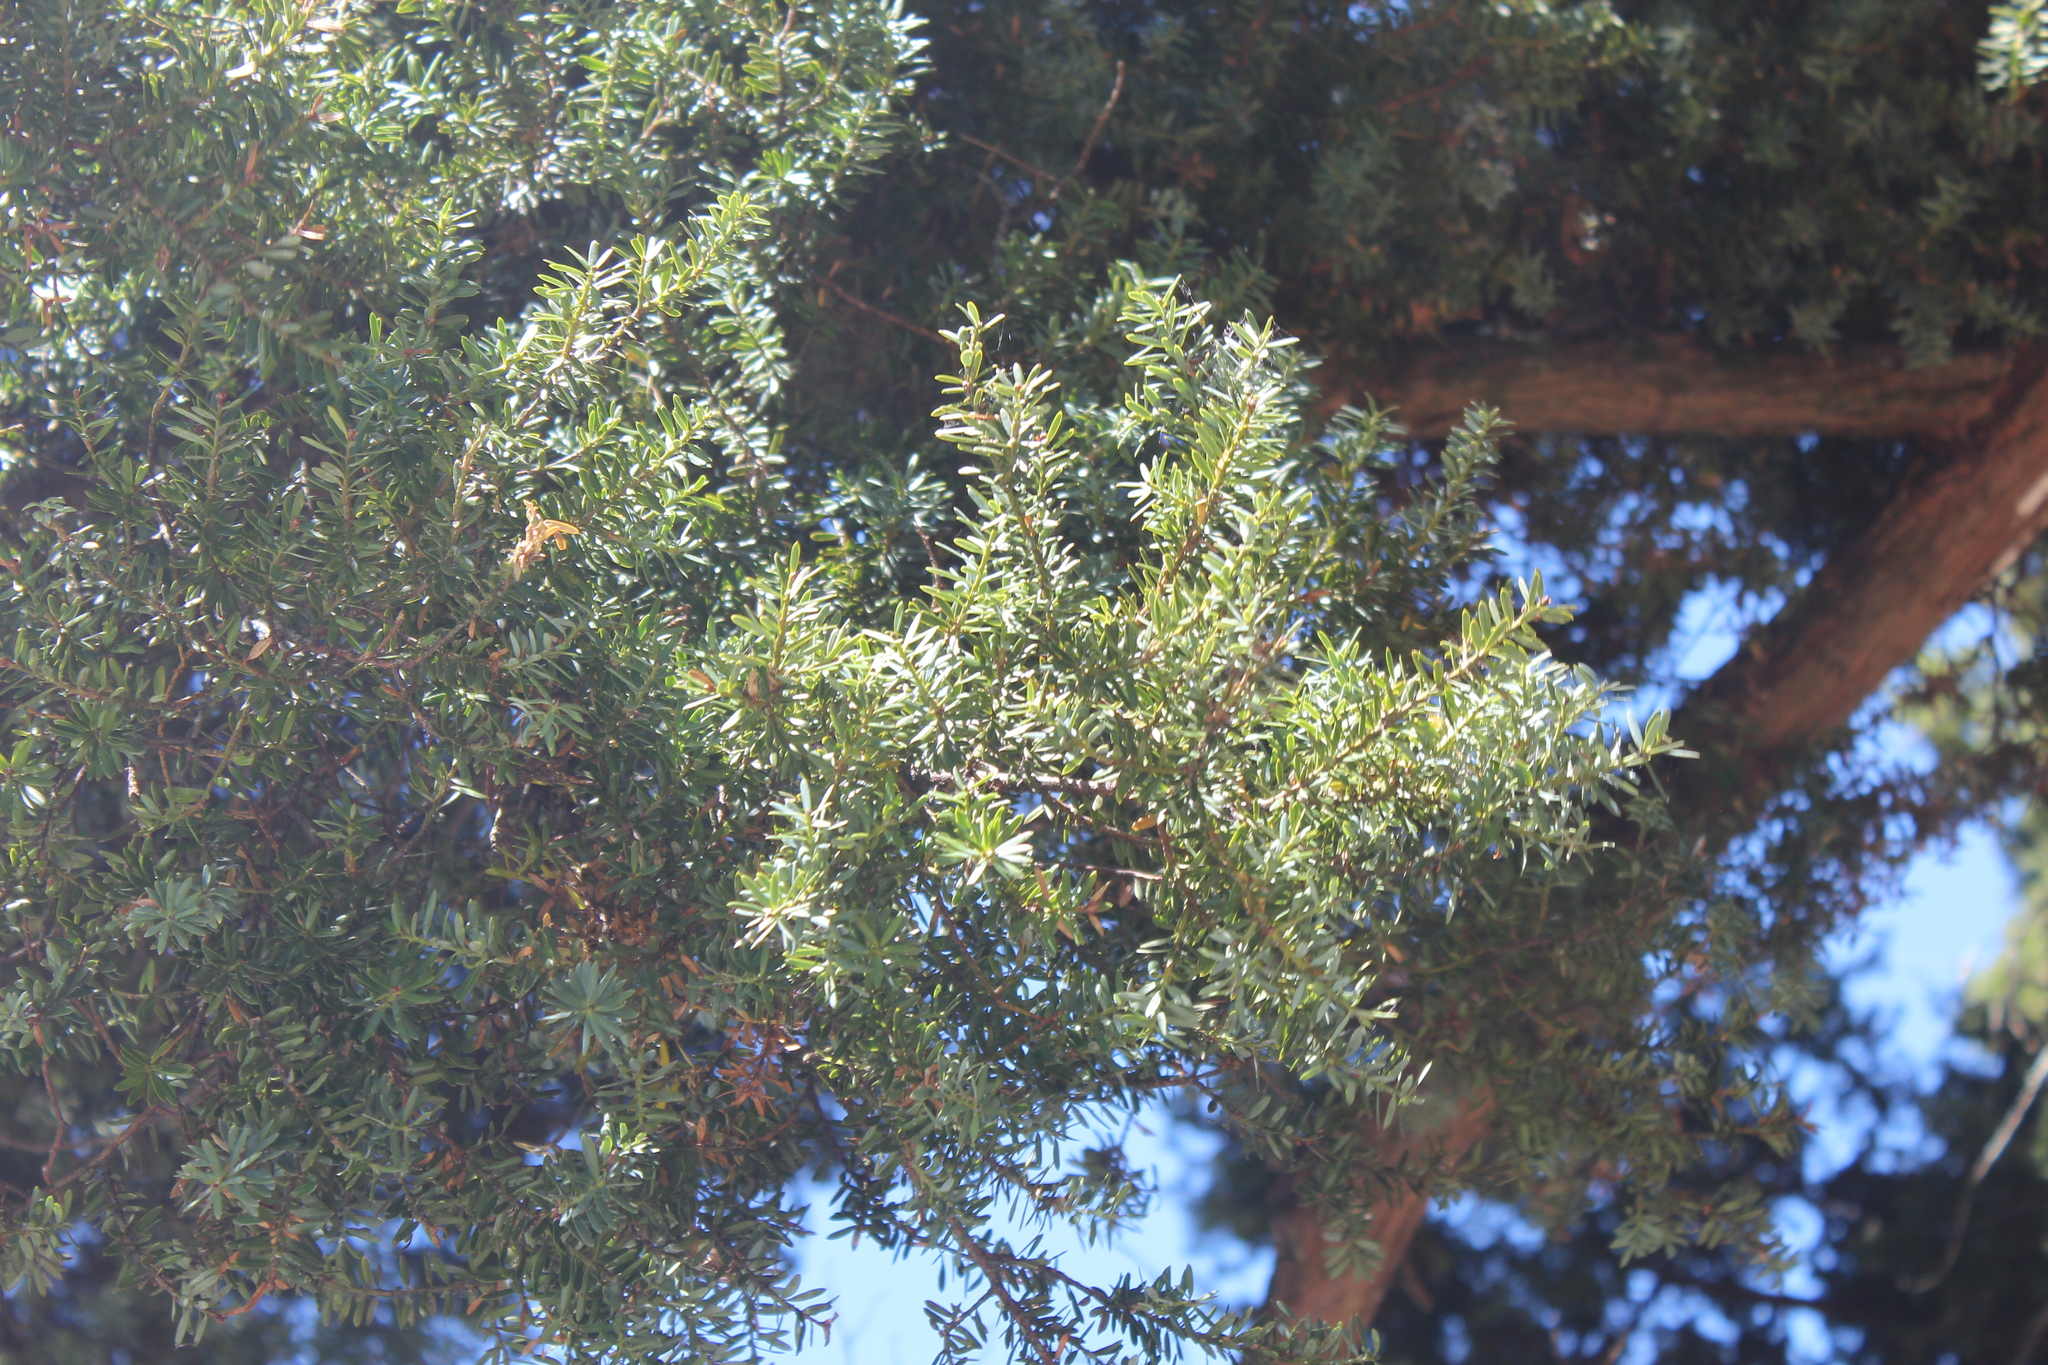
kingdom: Plantae
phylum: Tracheophyta
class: Pinopsida
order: Pinales
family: Podocarpaceae
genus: Podocarpus
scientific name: Podocarpus totara
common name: Totara
